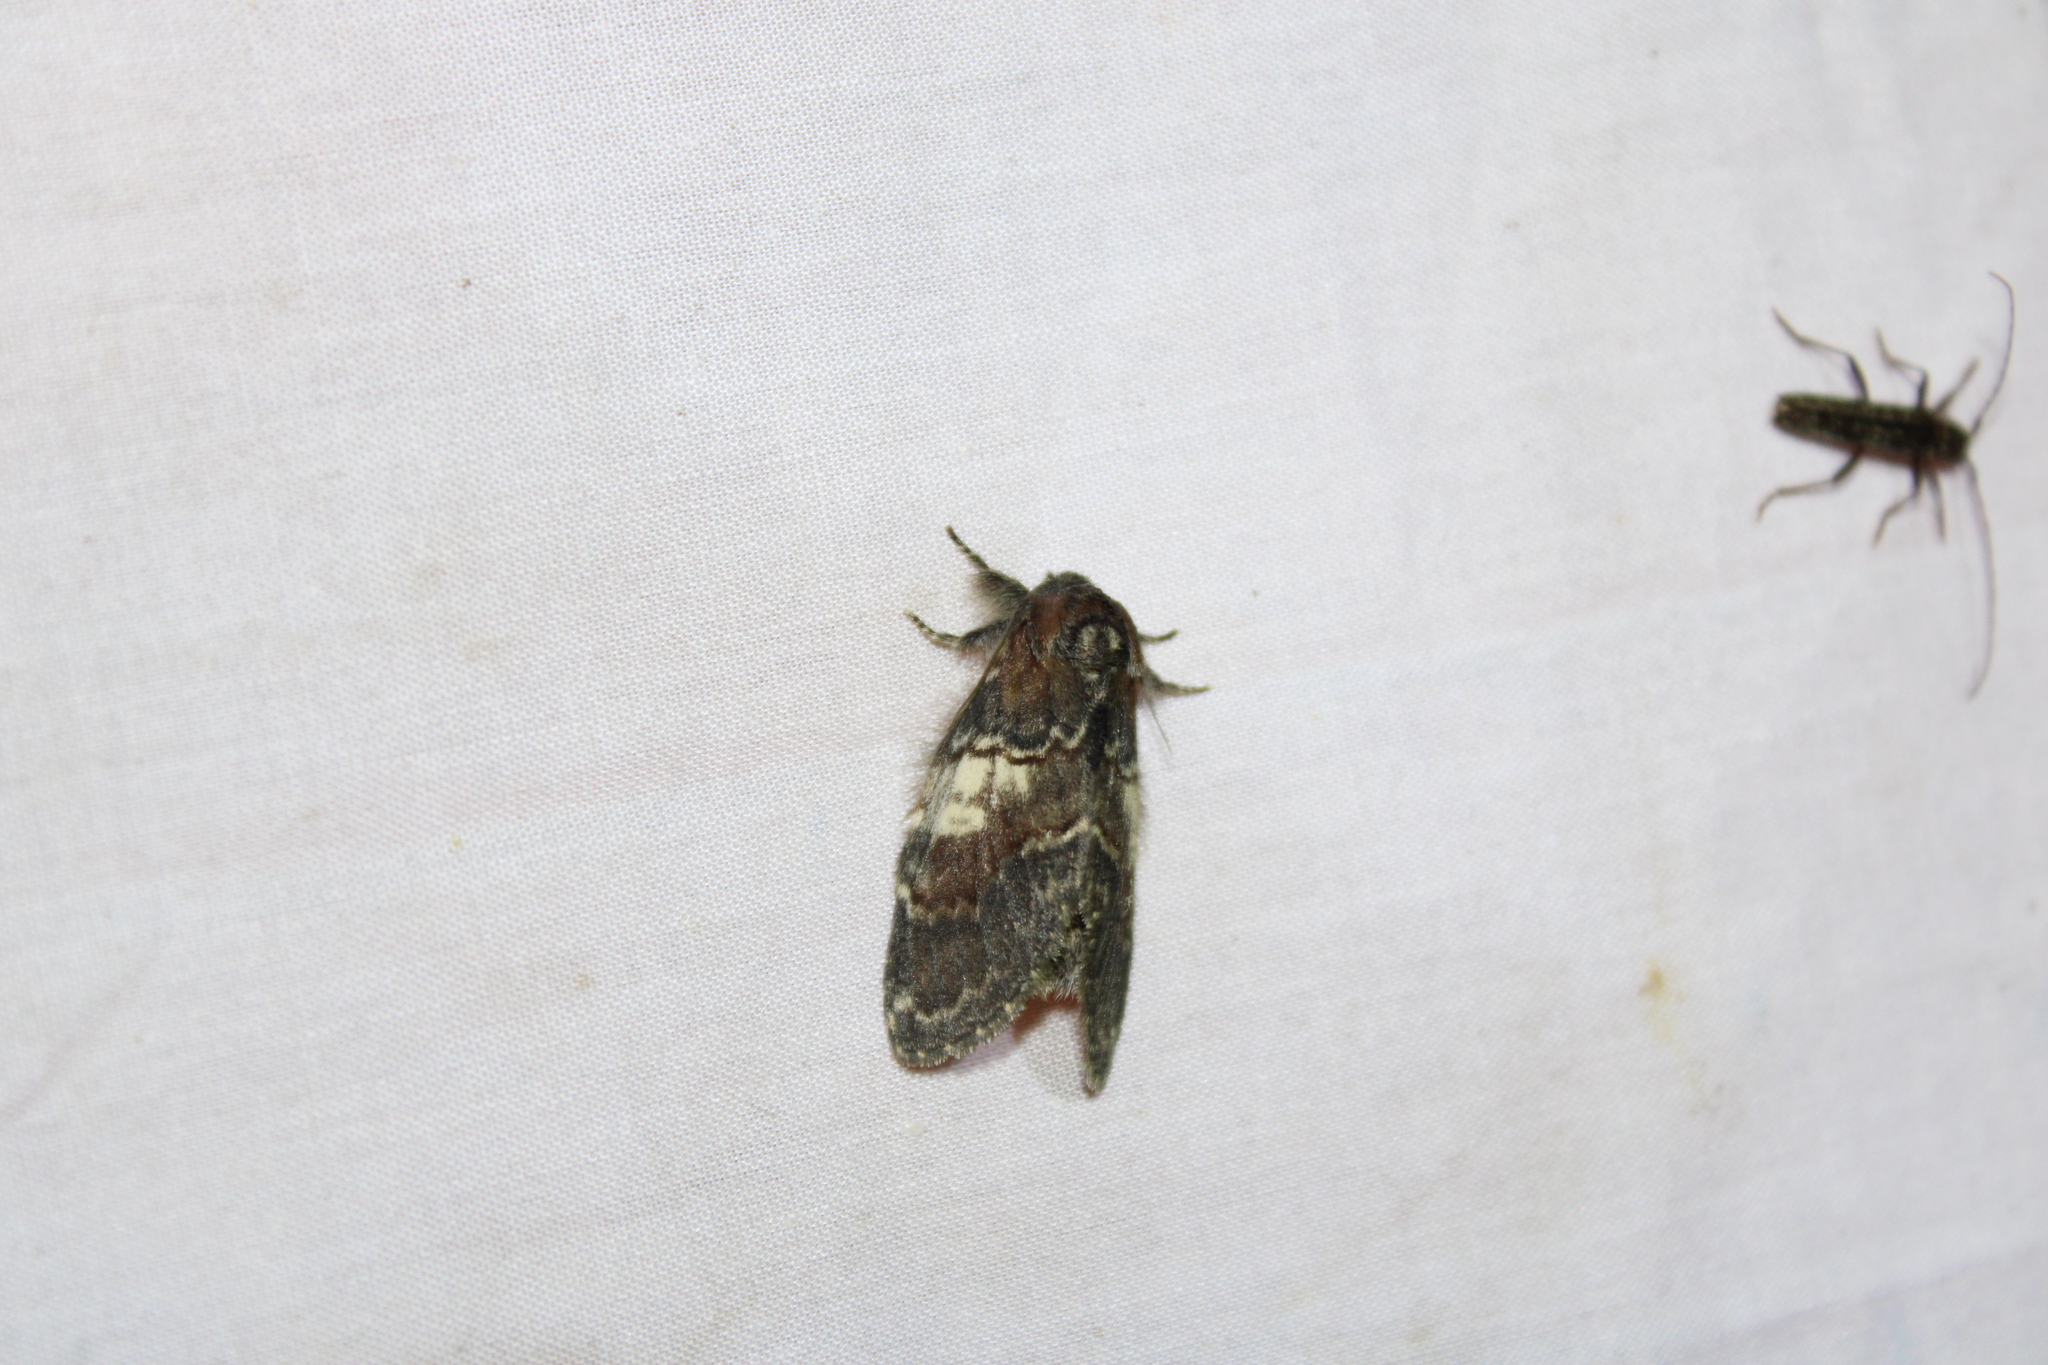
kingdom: Animalia
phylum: Arthropoda
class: Insecta
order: Lepidoptera
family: Notodontidae
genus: Peridea
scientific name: Peridea ferruginea
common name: Chocolate prominent
